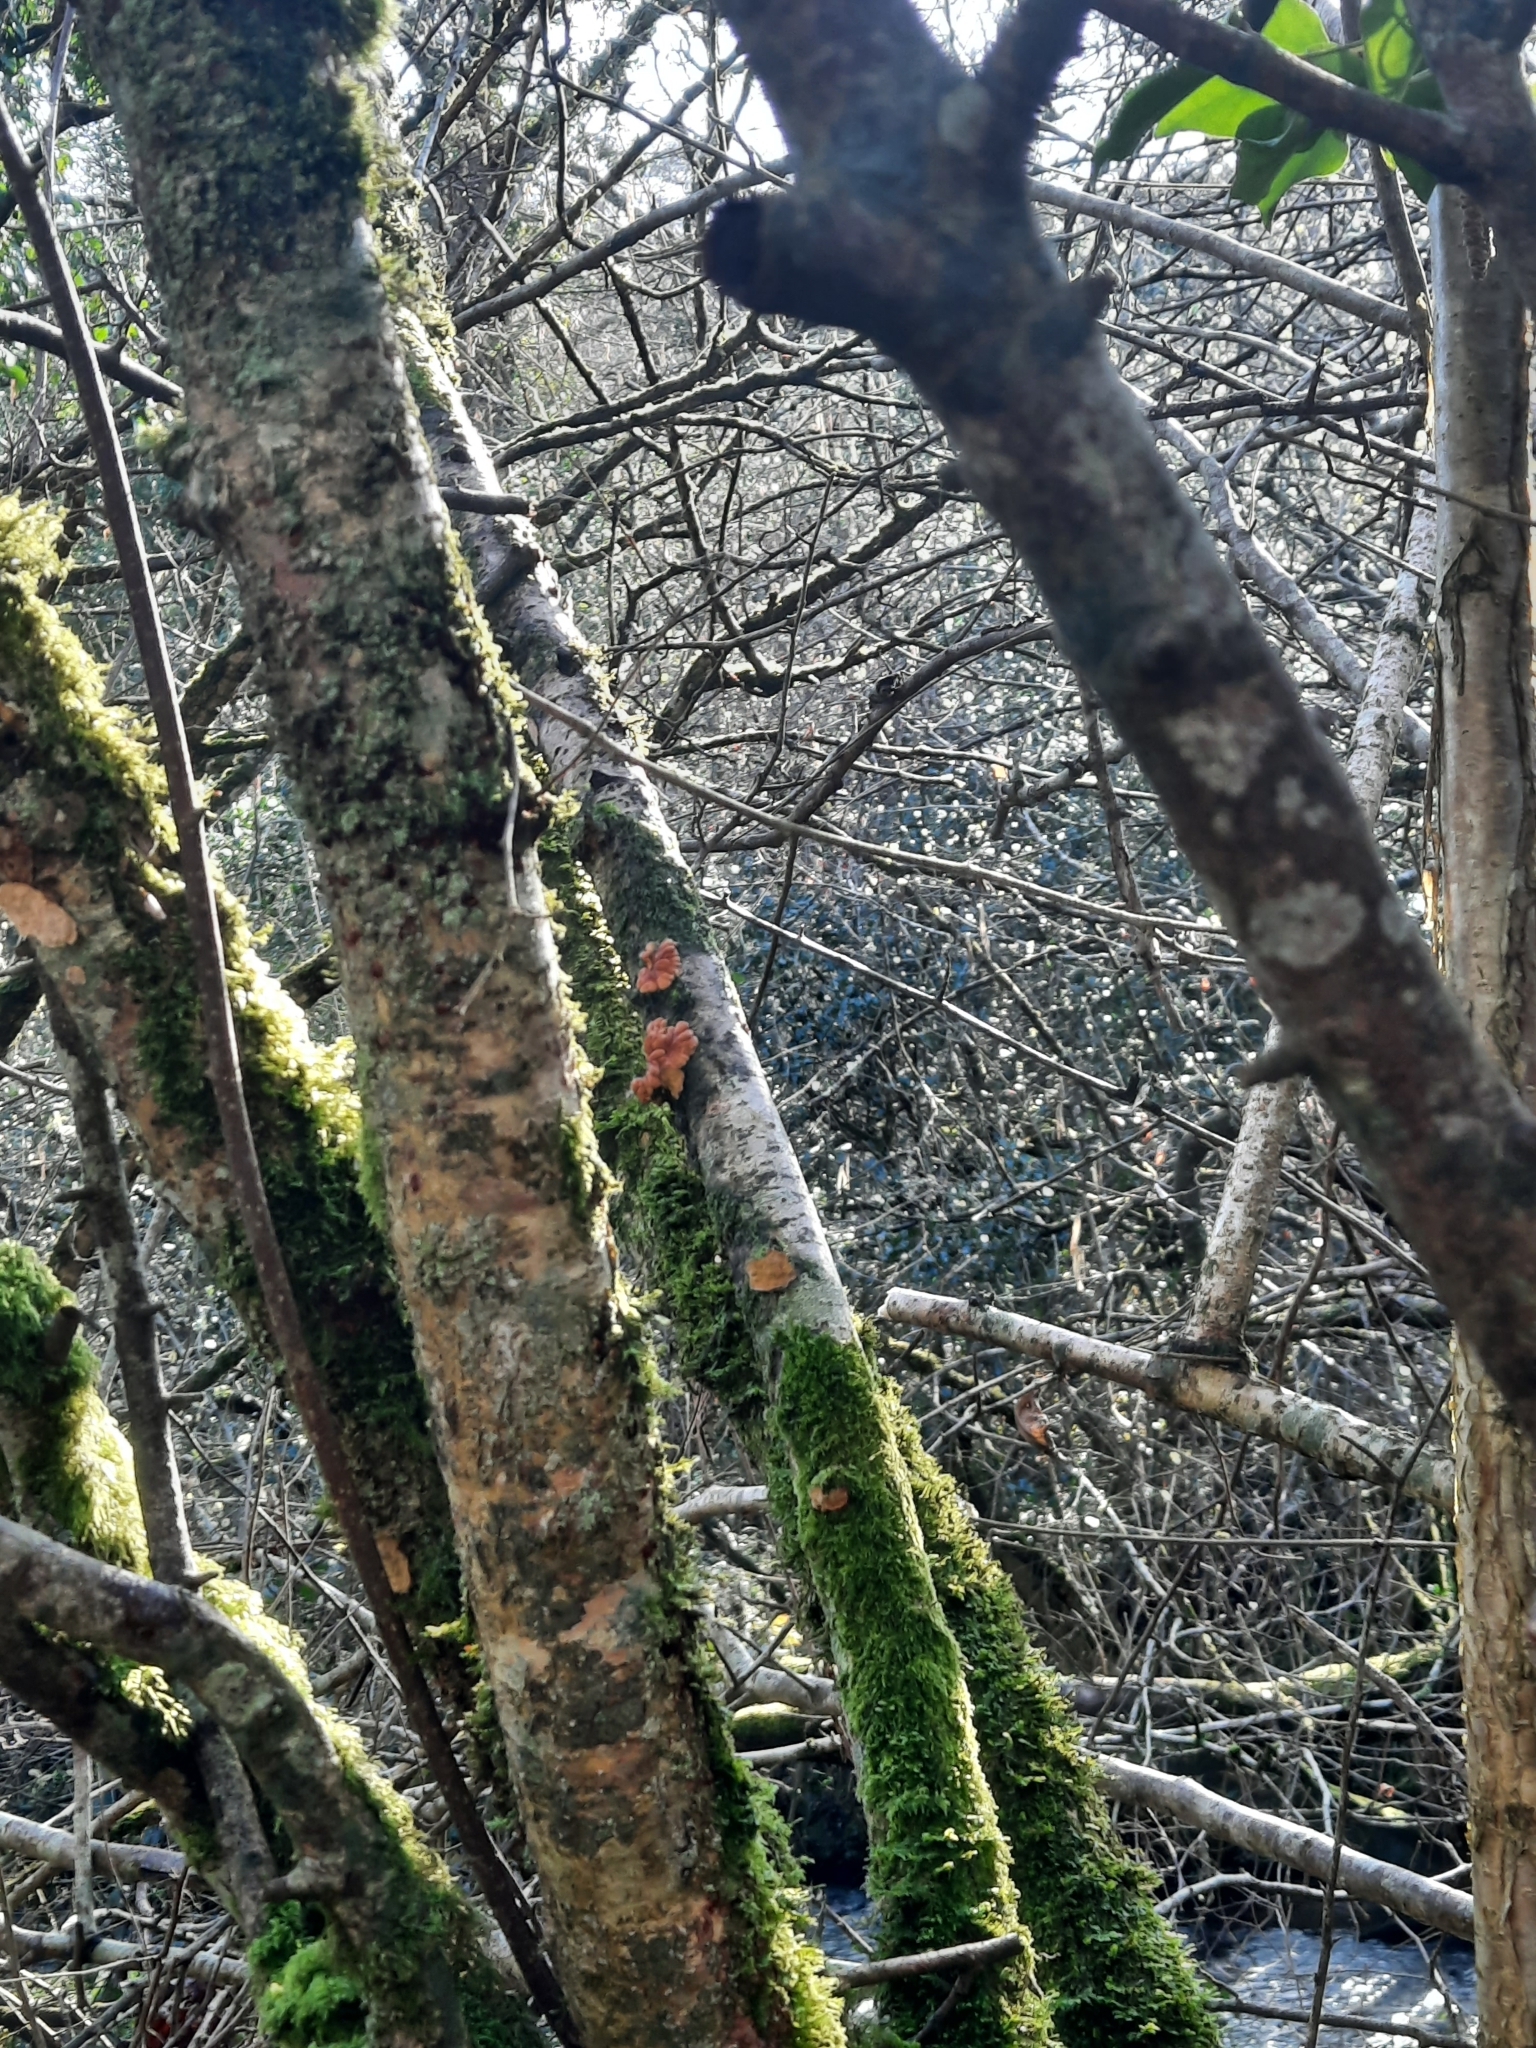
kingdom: Fungi
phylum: Ascomycota
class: Sordariomycetes
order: Hypocreales
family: Hypocreaceae
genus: Hypocreopsis
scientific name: Hypocreopsis rhododendri
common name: Hazel gloves
